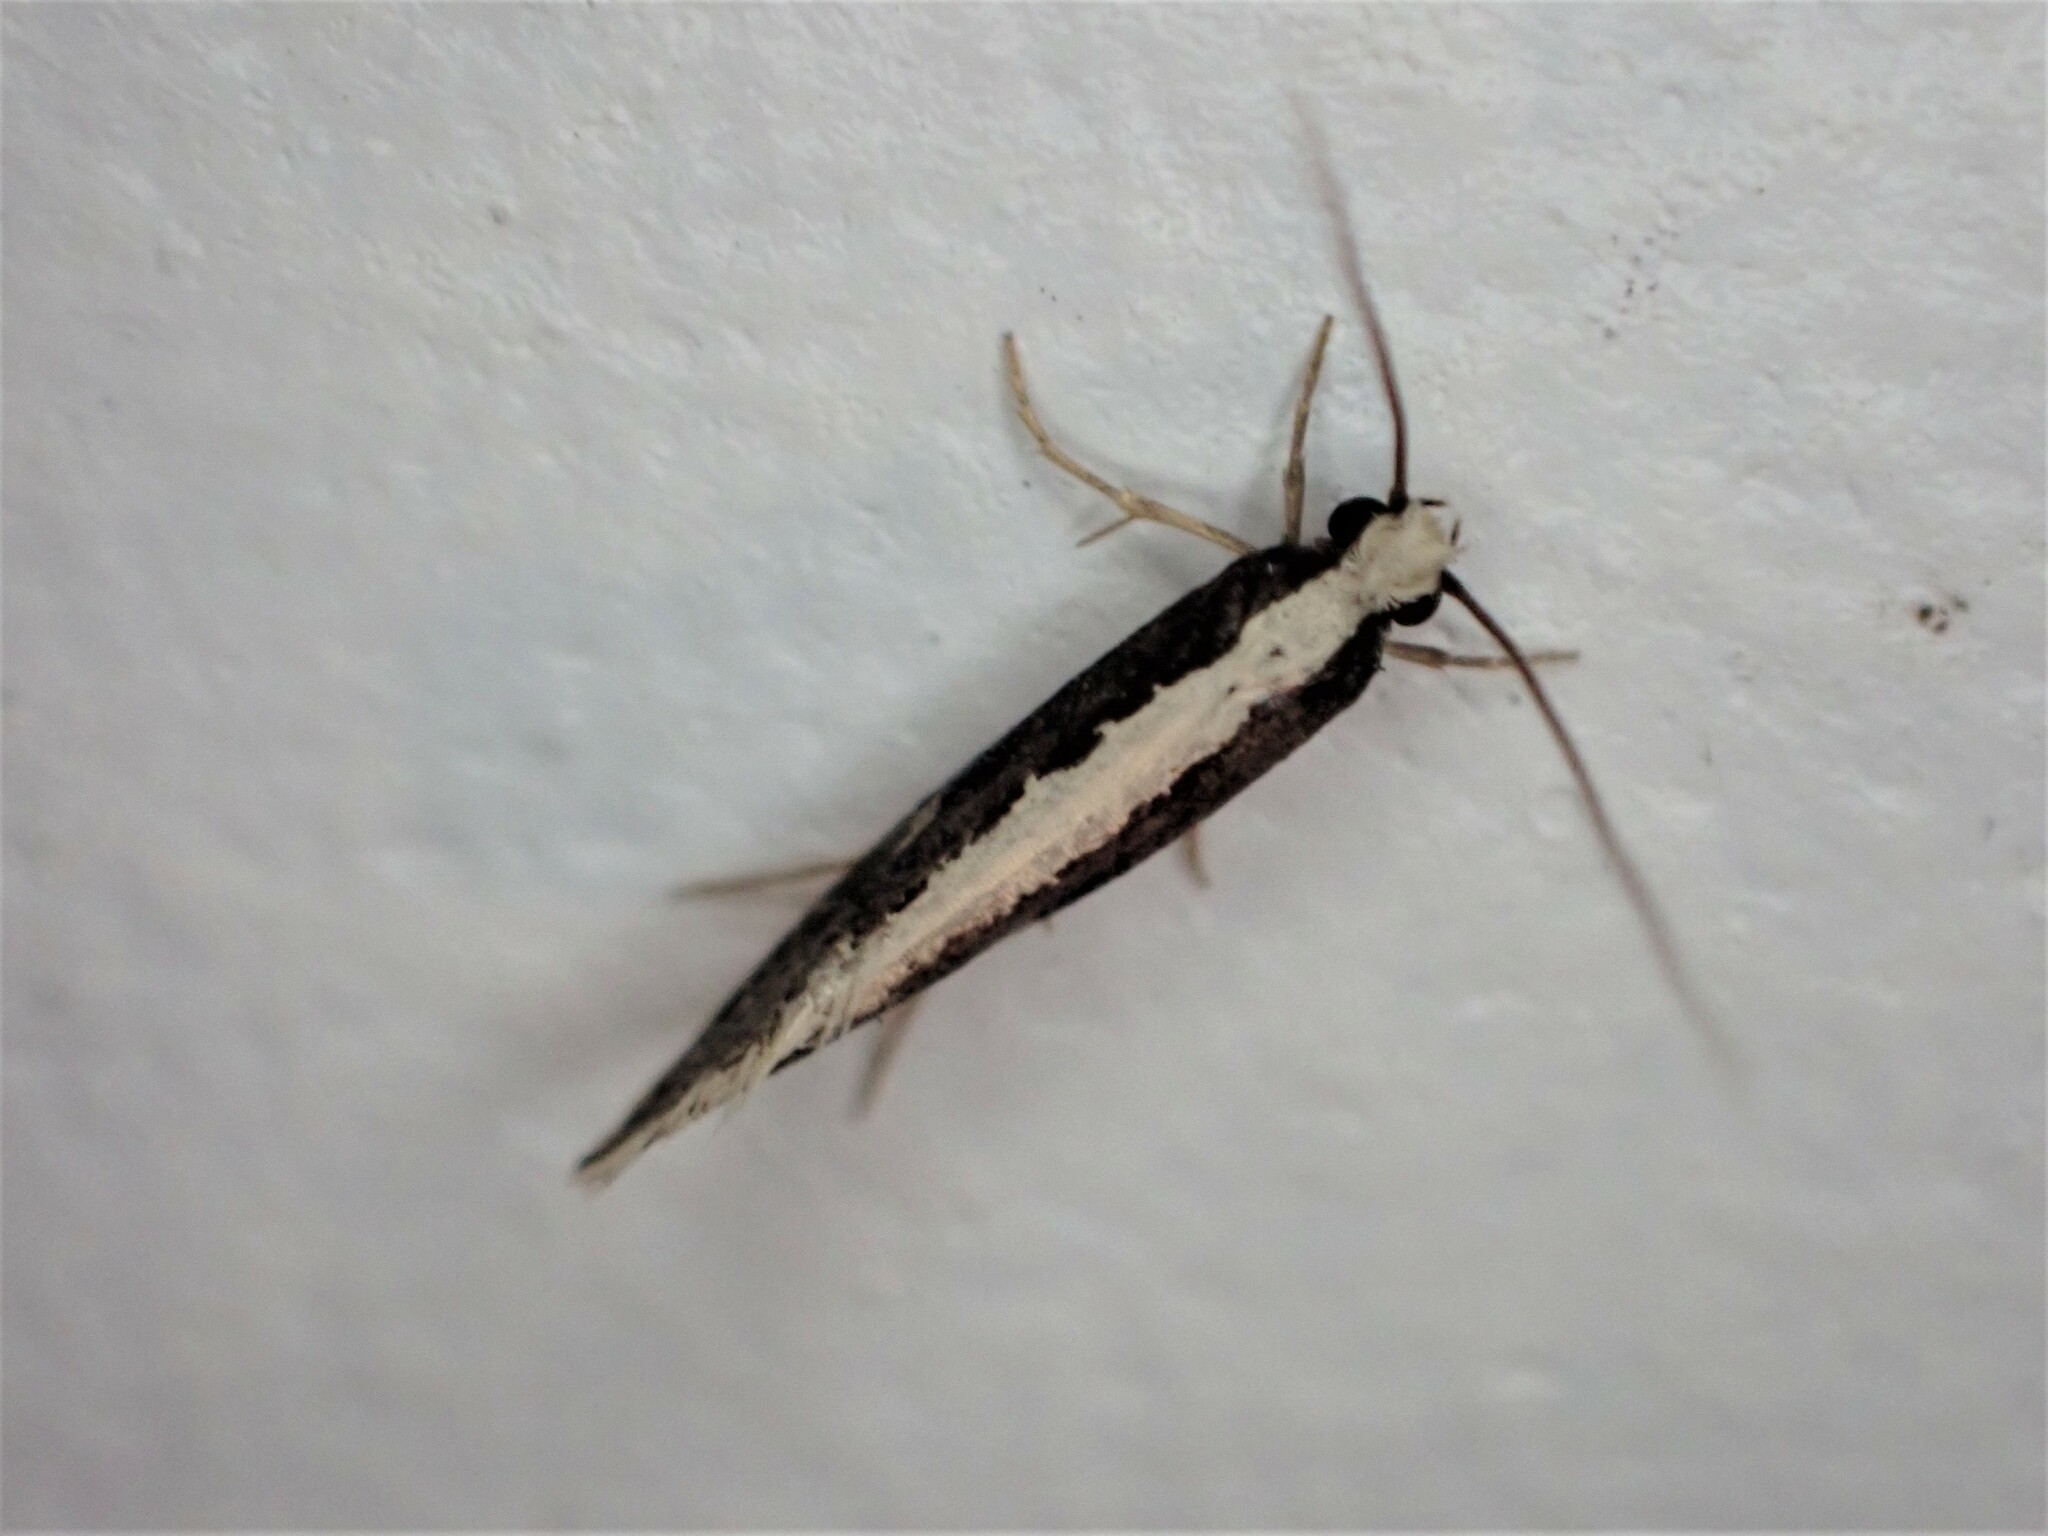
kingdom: Animalia
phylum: Arthropoda
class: Insecta
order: Lepidoptera
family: Tineidae
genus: Monopis
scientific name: Monopis ethelella
